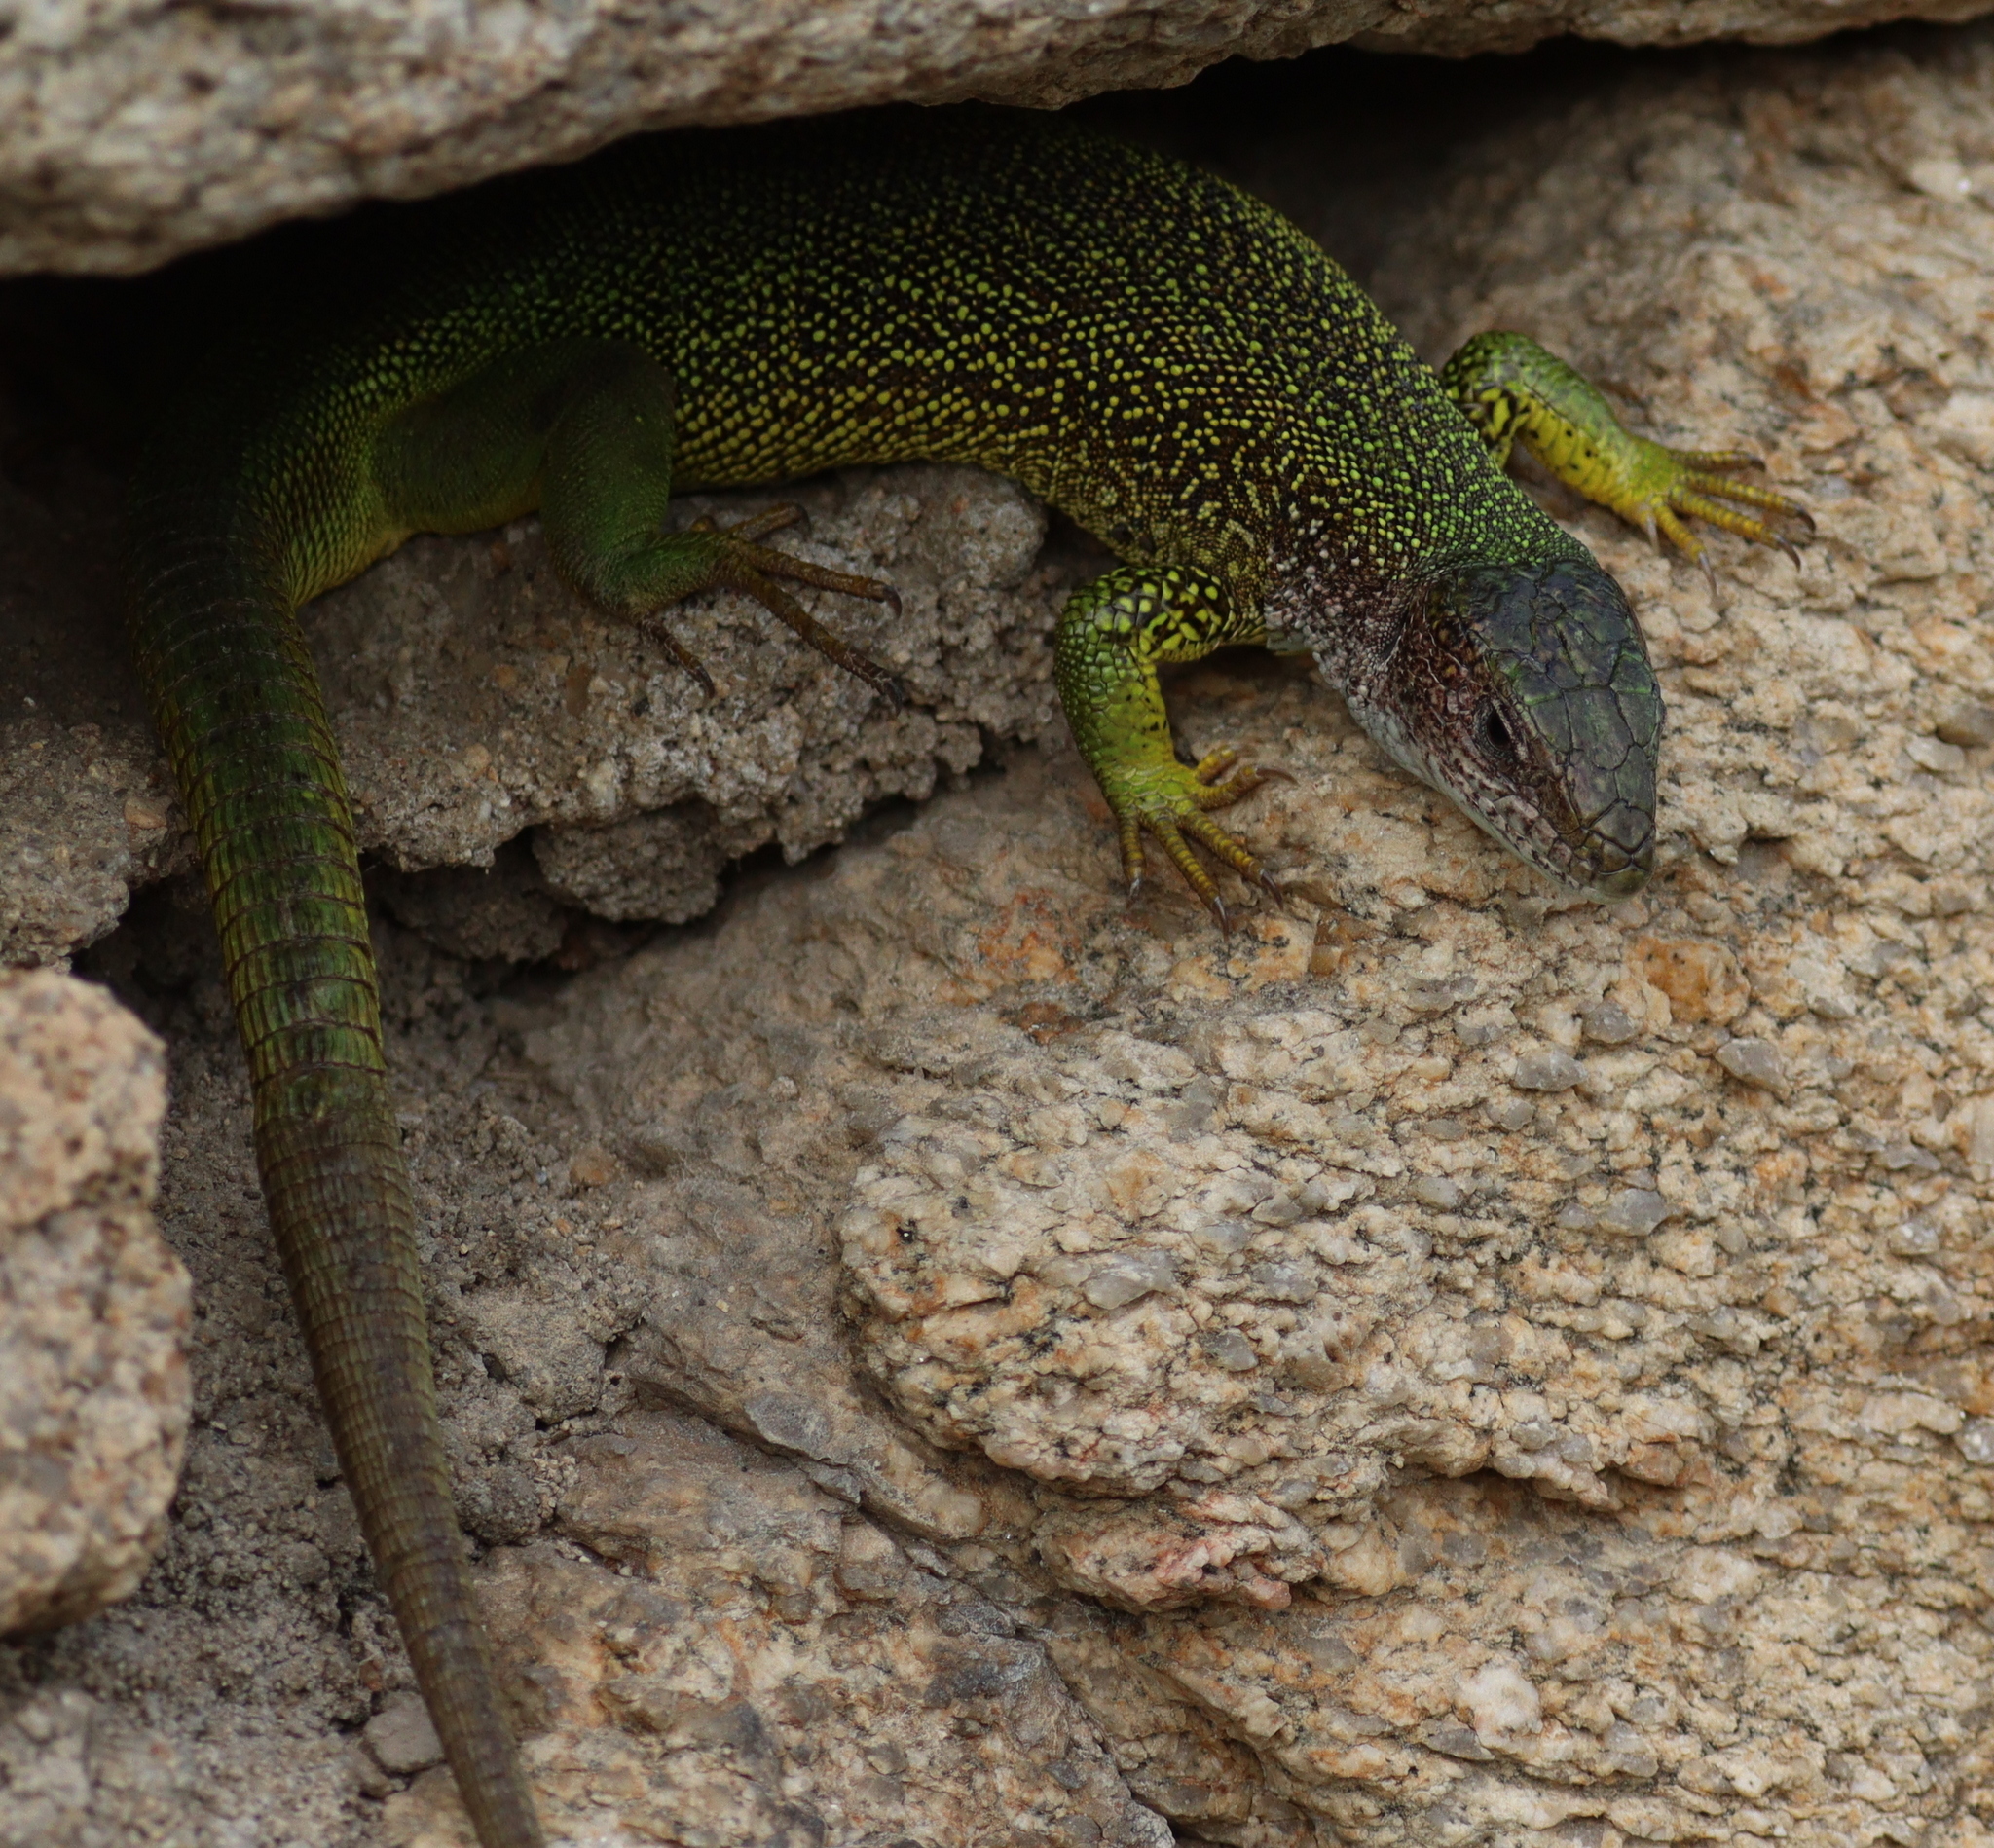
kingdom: Animalia
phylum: Chordata
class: Squamata
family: Lacertidae
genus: Lacerta
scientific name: Lacerta viridis
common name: European green lizard
